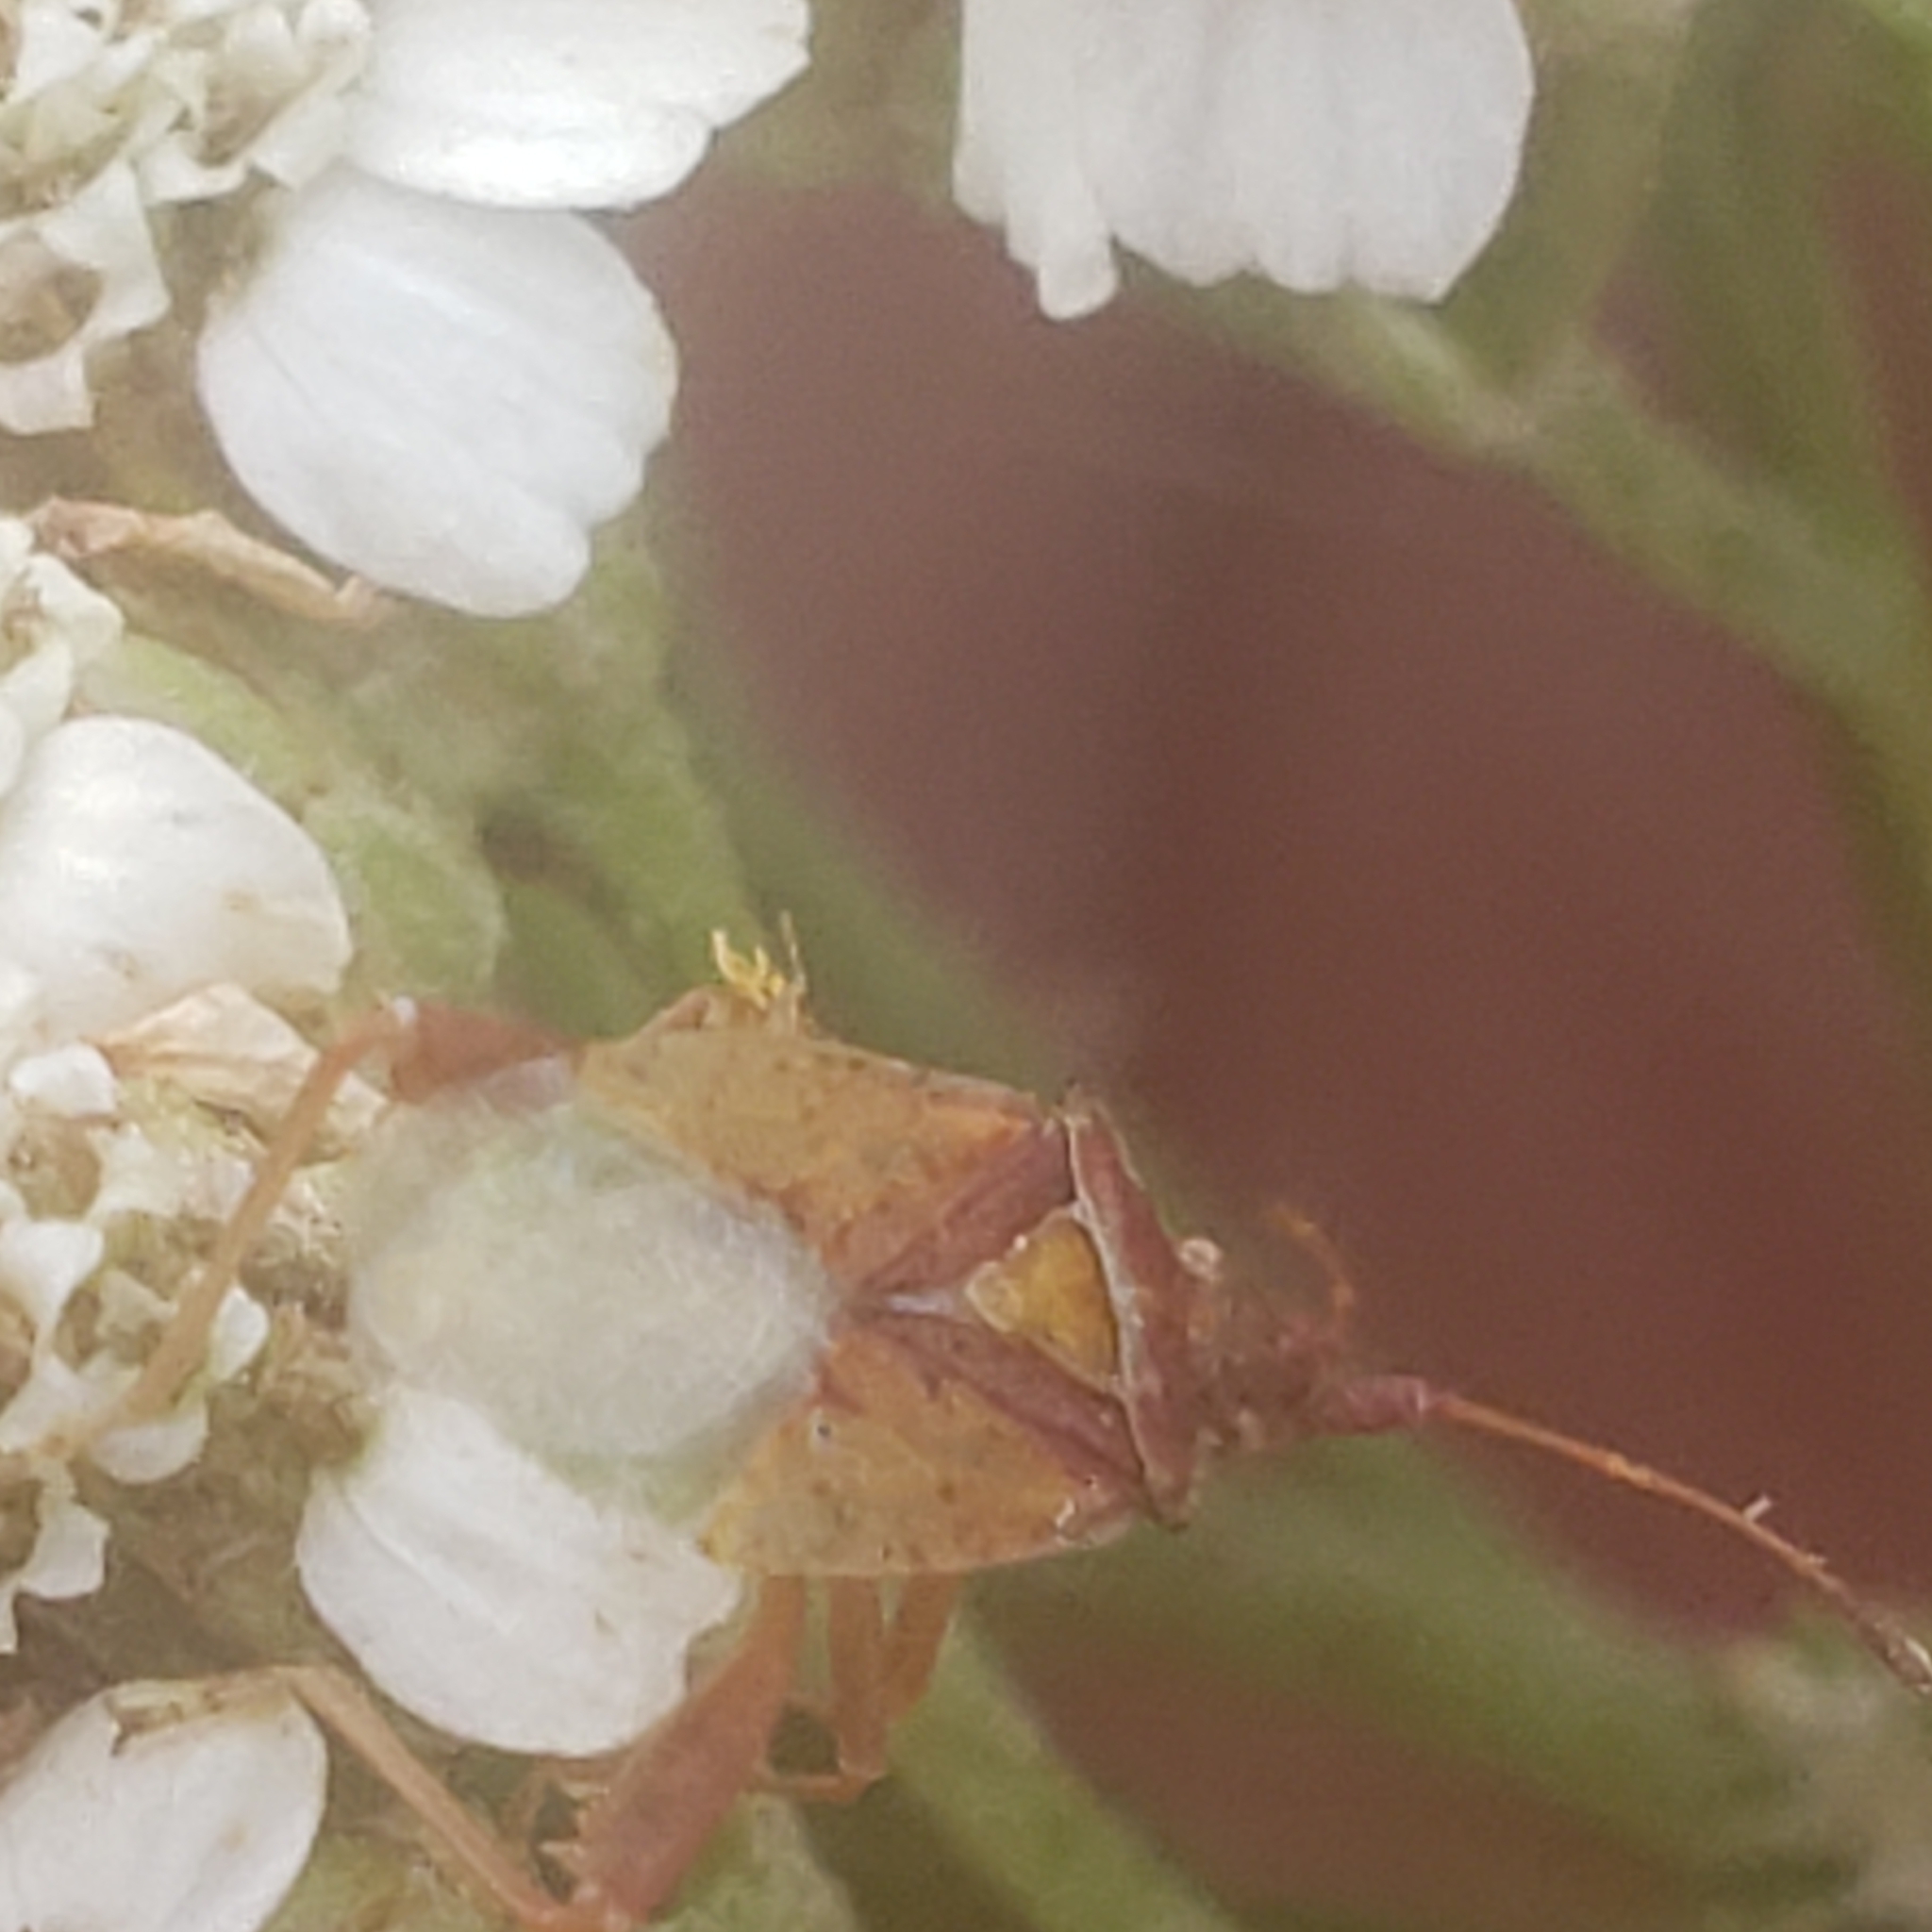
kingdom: Animalia
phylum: Arthropoda
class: Insecta
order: Hemiptera
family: Rhopalidae
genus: Harmostes
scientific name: Harmostes reflexulus
